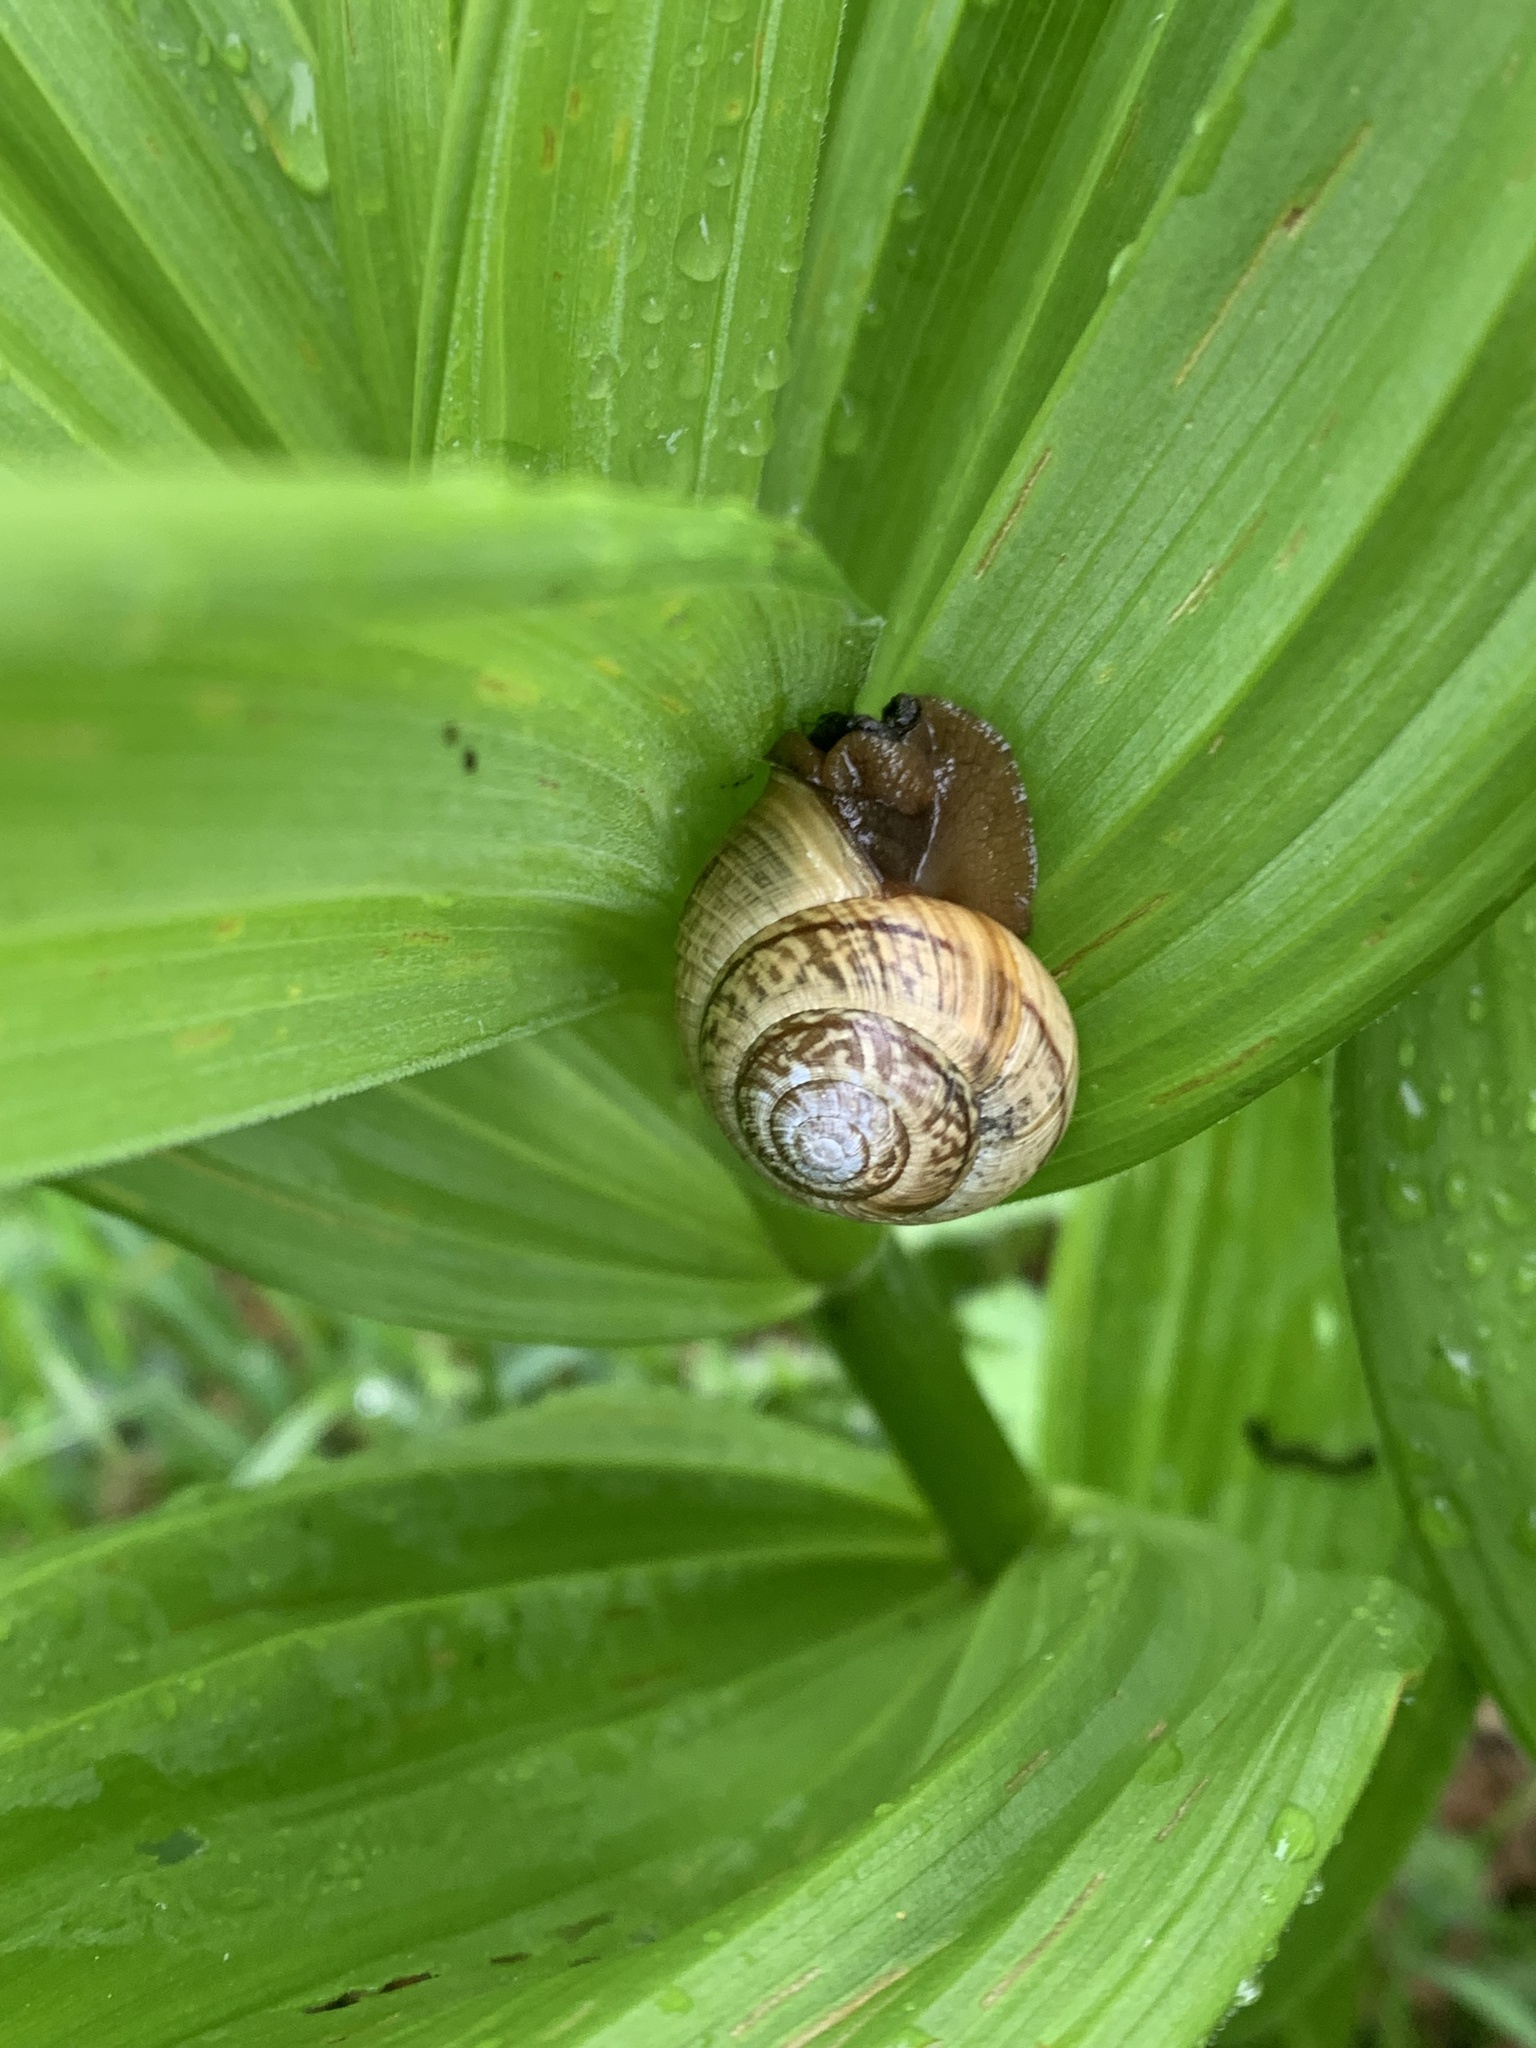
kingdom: Animalia
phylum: Mollusca
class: Gastropoda
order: Stylommatophora
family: Helicidae
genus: Arianta
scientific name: Arianta arbustorum
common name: Copse snail
